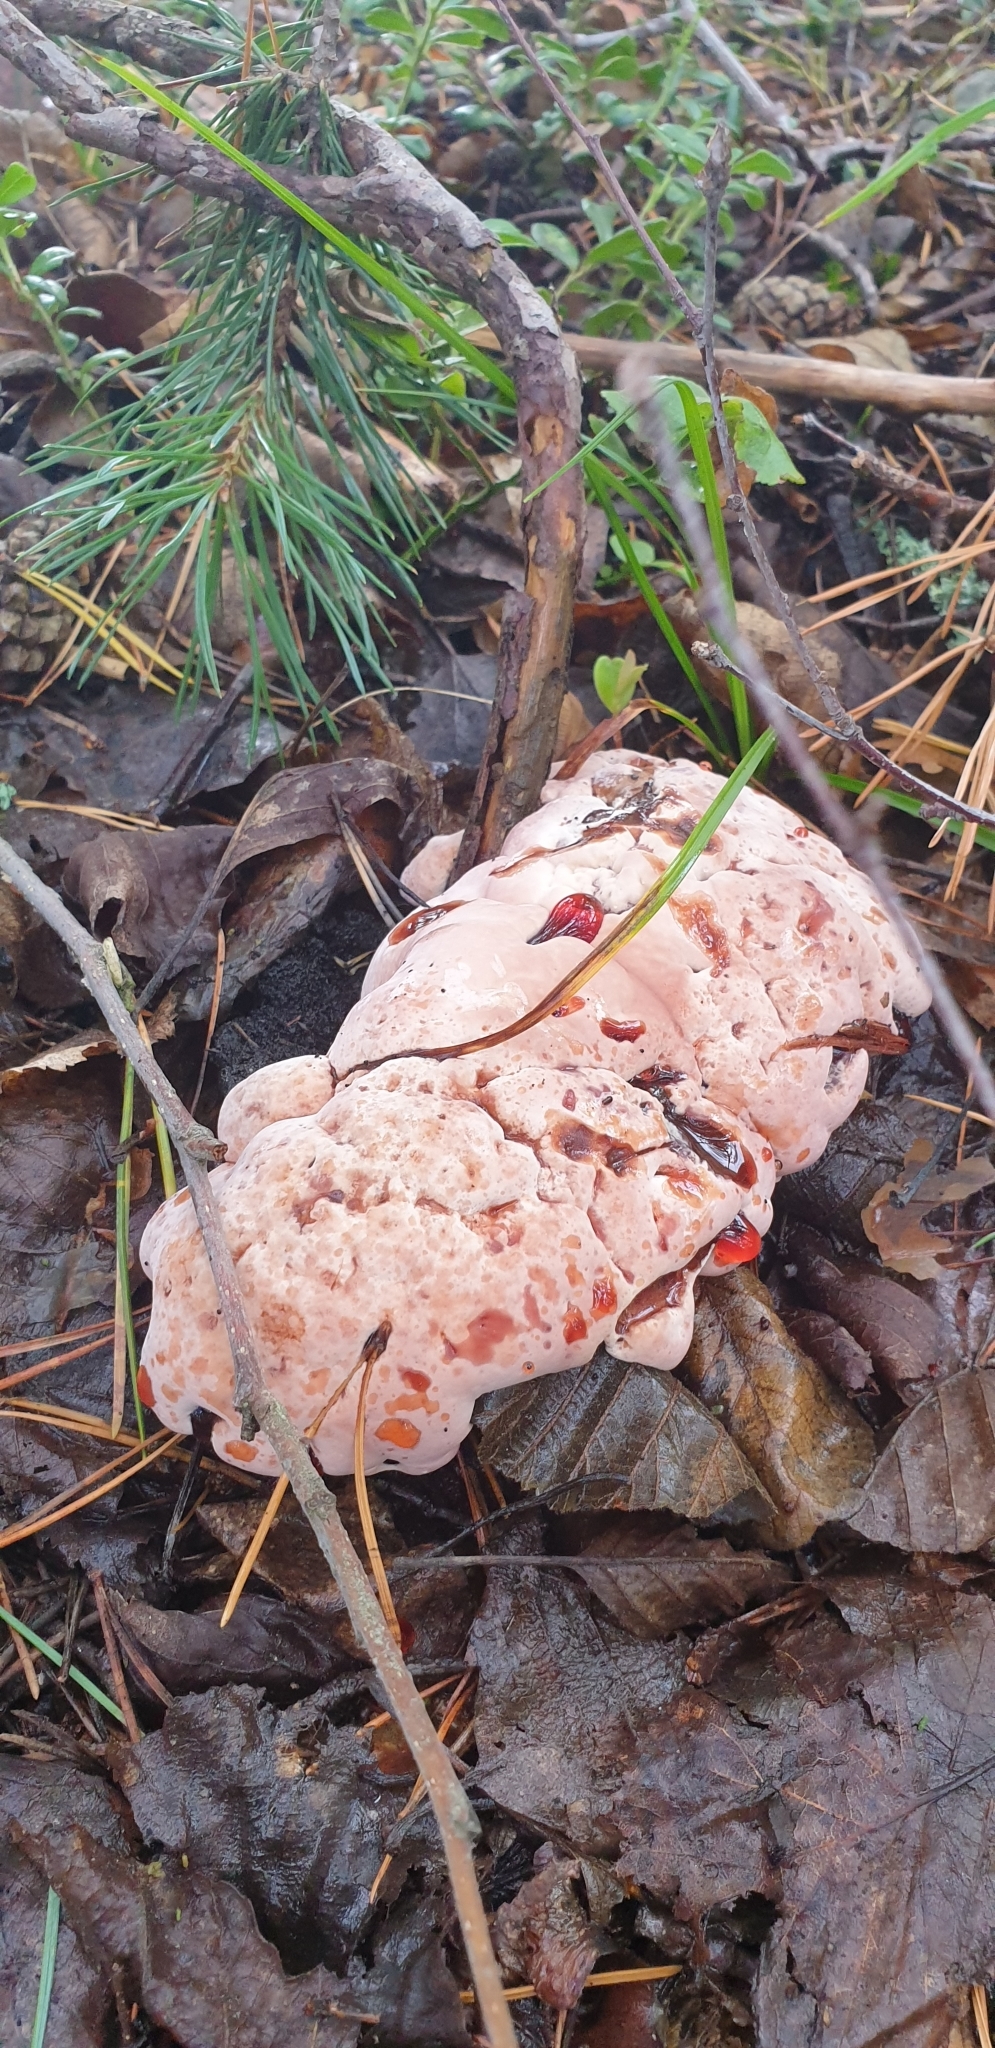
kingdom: Fungi
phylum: Basidiomycota
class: Agaricomycetes
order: Thelephorales
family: Bankeraceae
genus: Hydnellum
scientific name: Hydnellum peckii
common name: Devil's tooth
